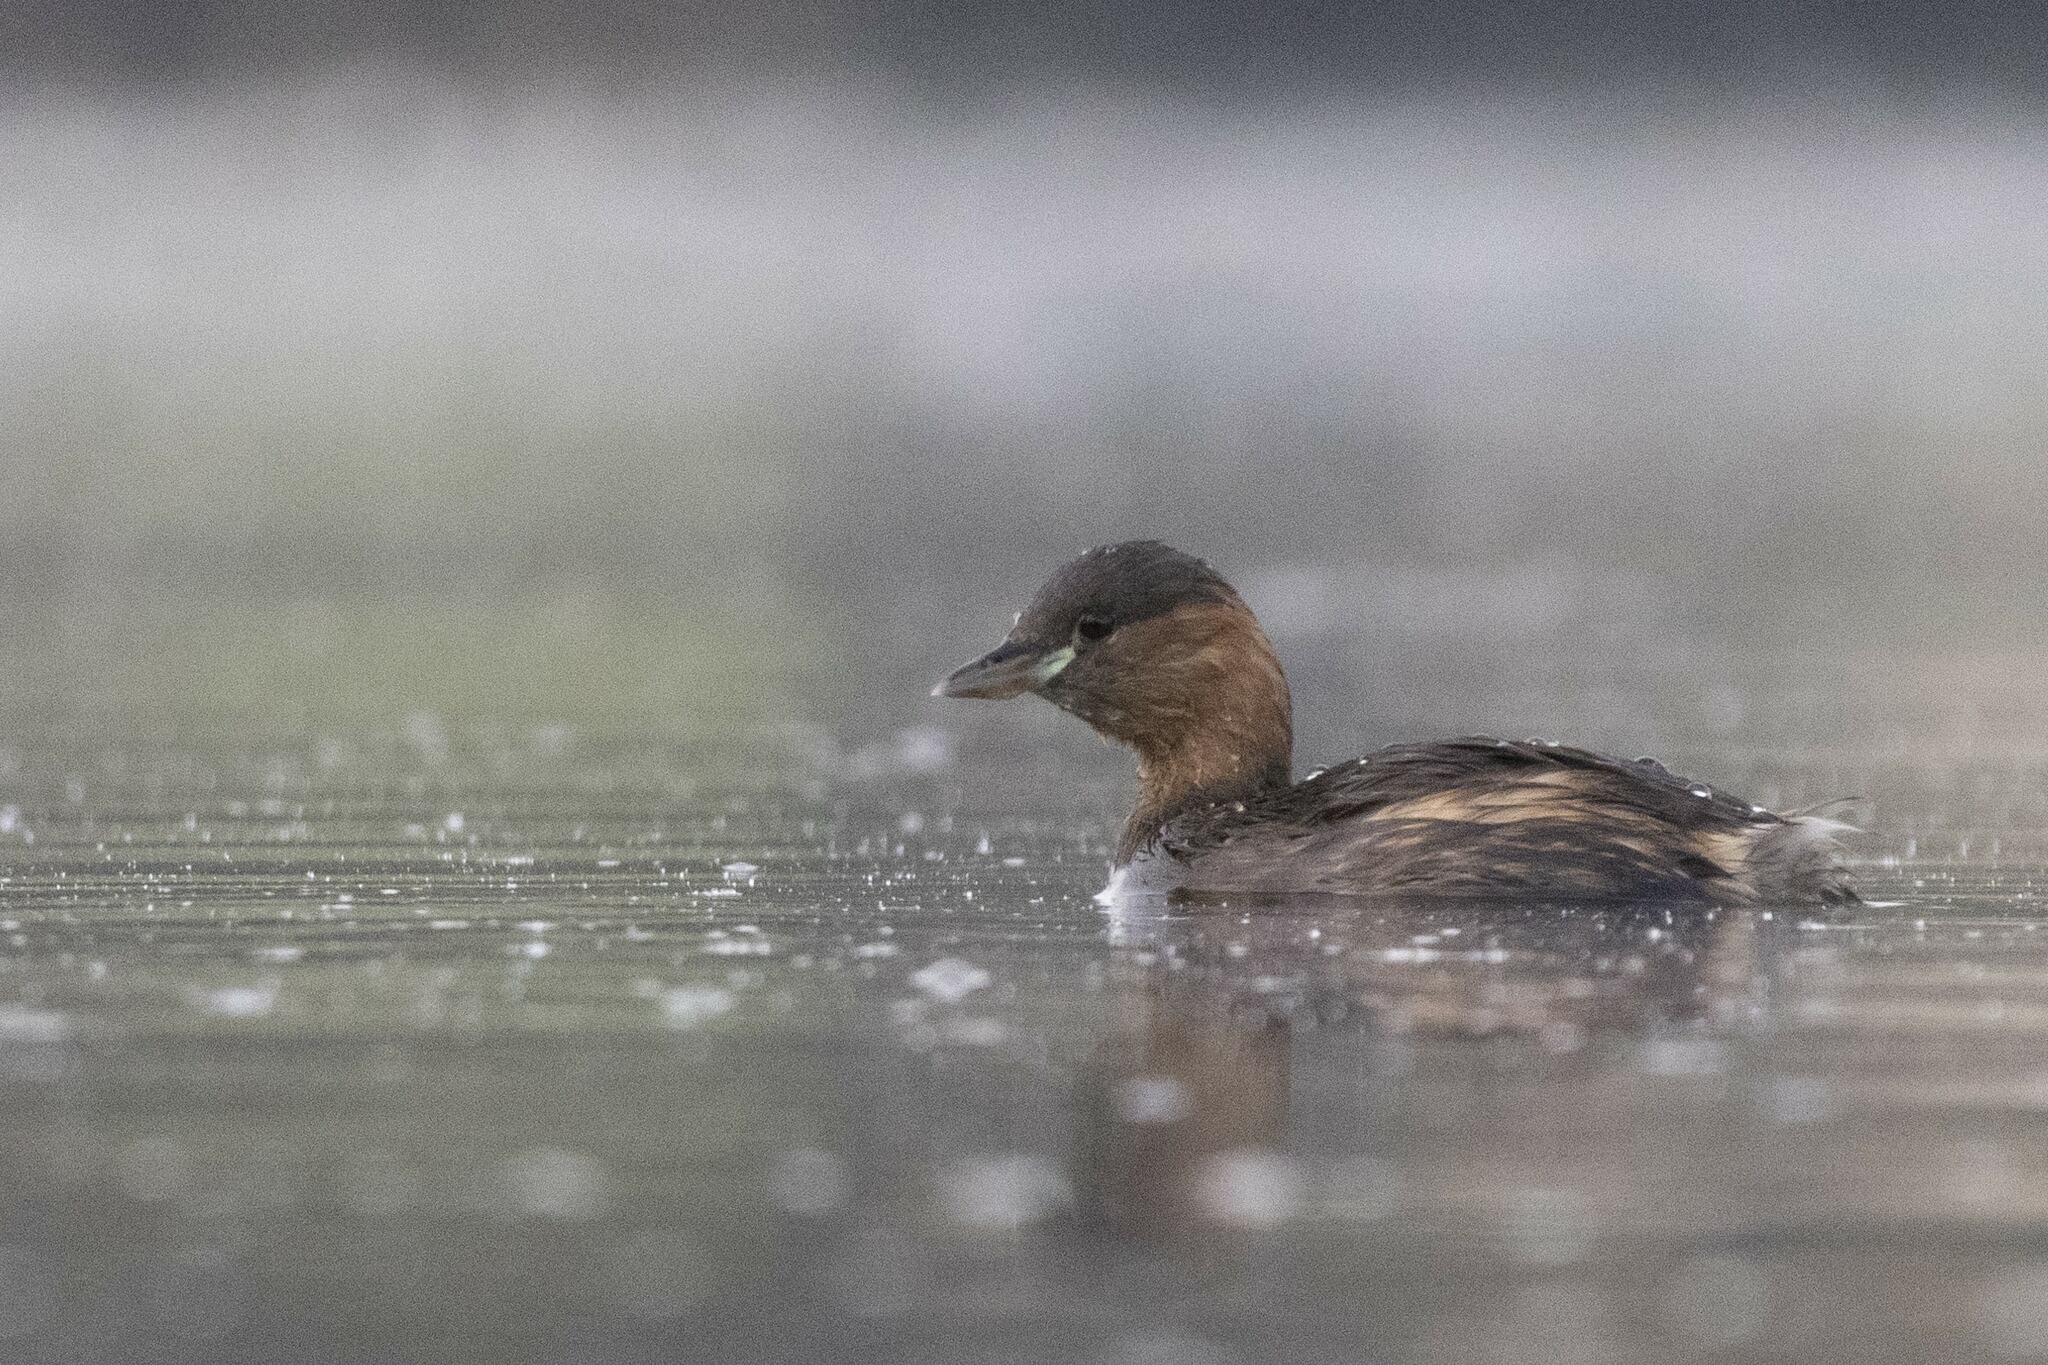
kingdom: Animalia
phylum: Chordata
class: Aves
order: Podicipediformes
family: Podicipedidae
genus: Tachybaptus
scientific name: Tachybaptus ruficollis
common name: Little grebe
